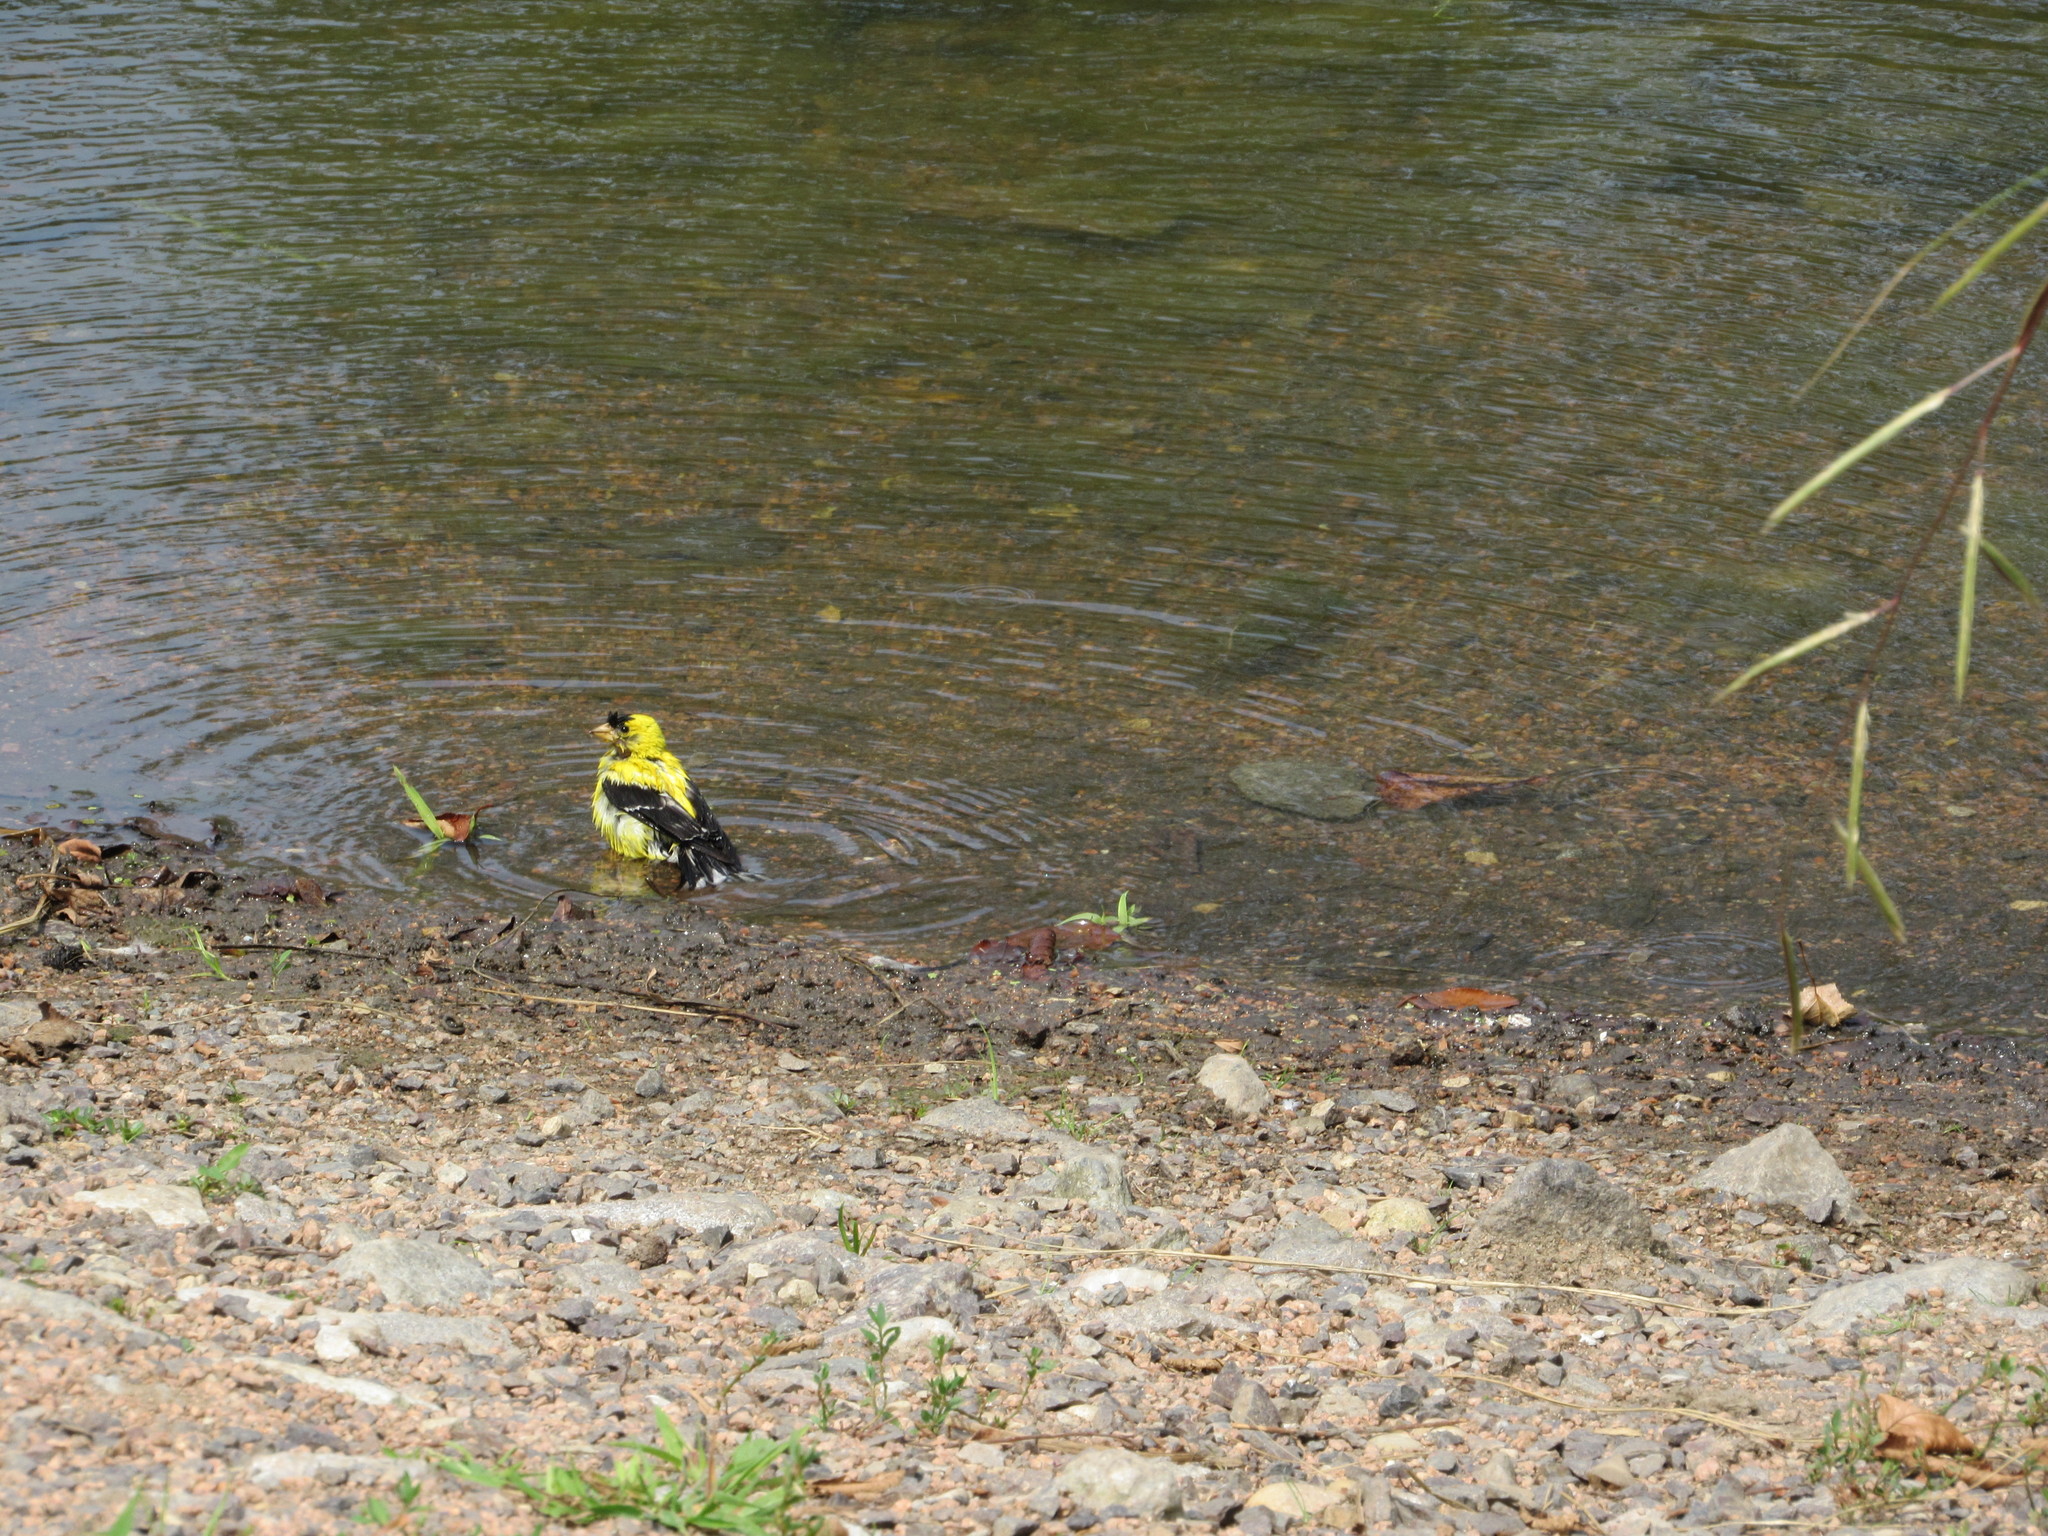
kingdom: Animalia
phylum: Chordata
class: Aves
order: Passeriformes
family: Fringillidae
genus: Spinus
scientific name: Spinus tristis
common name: American goldfinch
